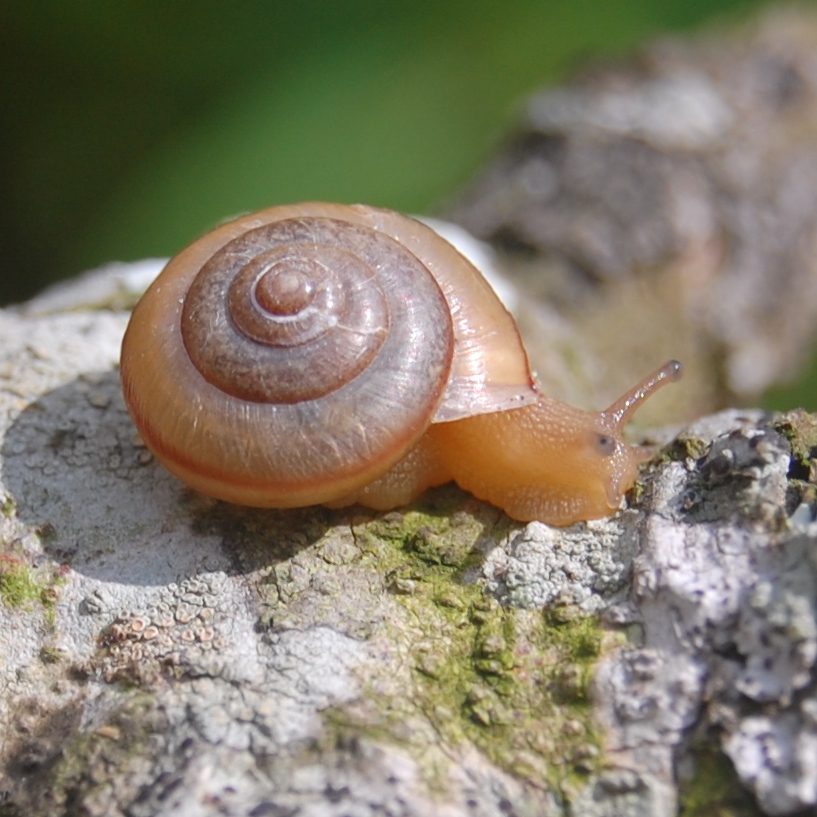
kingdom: Animalia
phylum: Mollusca
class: Gastropoda
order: Stylommatophora
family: Camaenidae
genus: Bradybaena
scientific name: Bradybaena similaris
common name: Asian trampsnail
